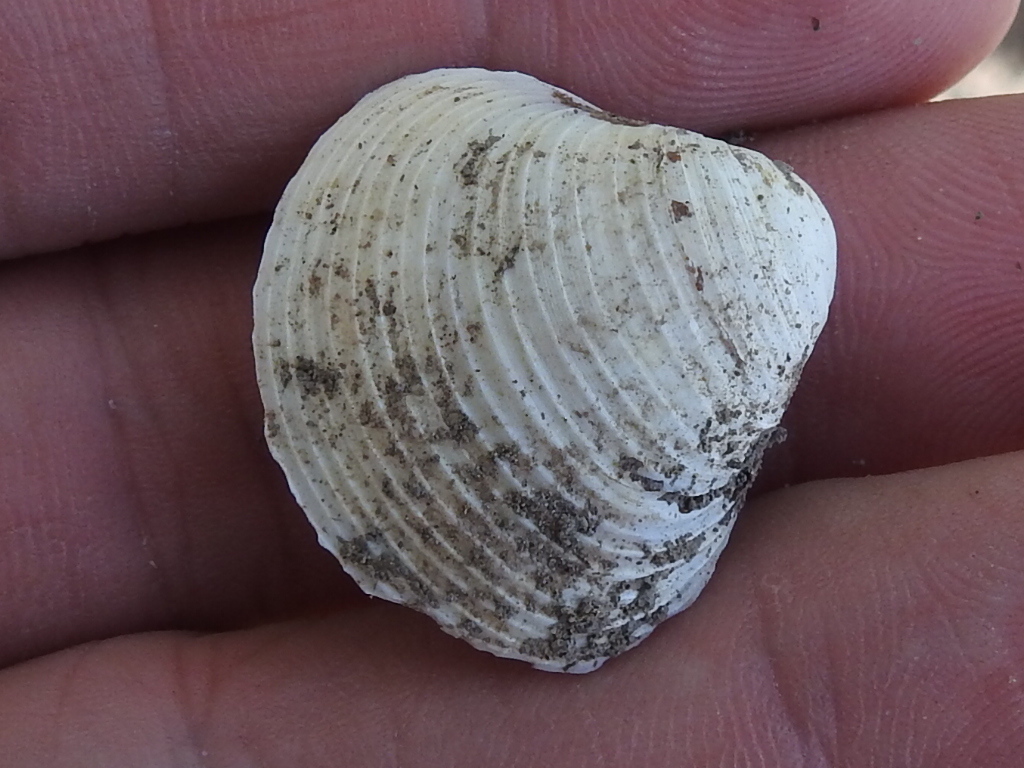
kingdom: Animalia
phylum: Mollusca
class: Bivalvia
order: Venerida
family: Cyrenidae
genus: Corbicula
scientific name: Corbicula fluminea
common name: Asian clam
